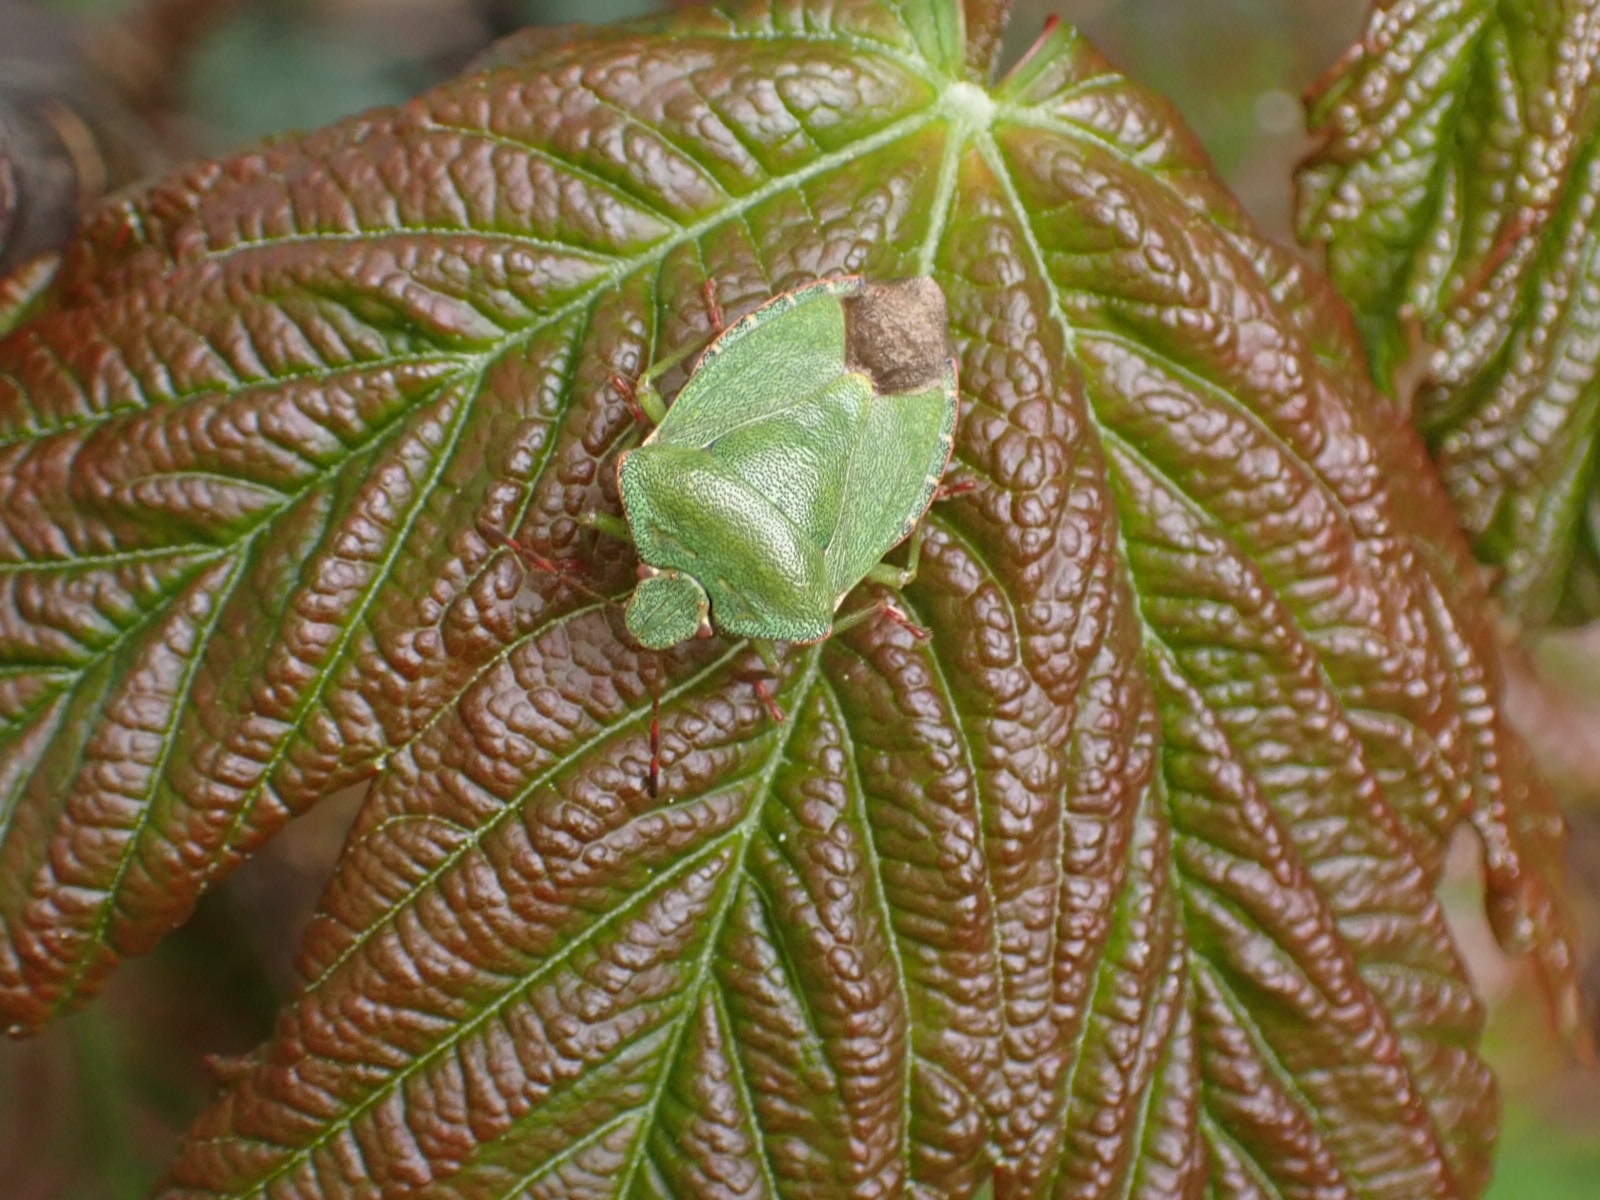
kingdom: Animalia
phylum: Arthropoda
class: Insecta
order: Hemiptera
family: Pentatomidae
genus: Palomena
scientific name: Palomena prasina
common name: Green shieldbug
